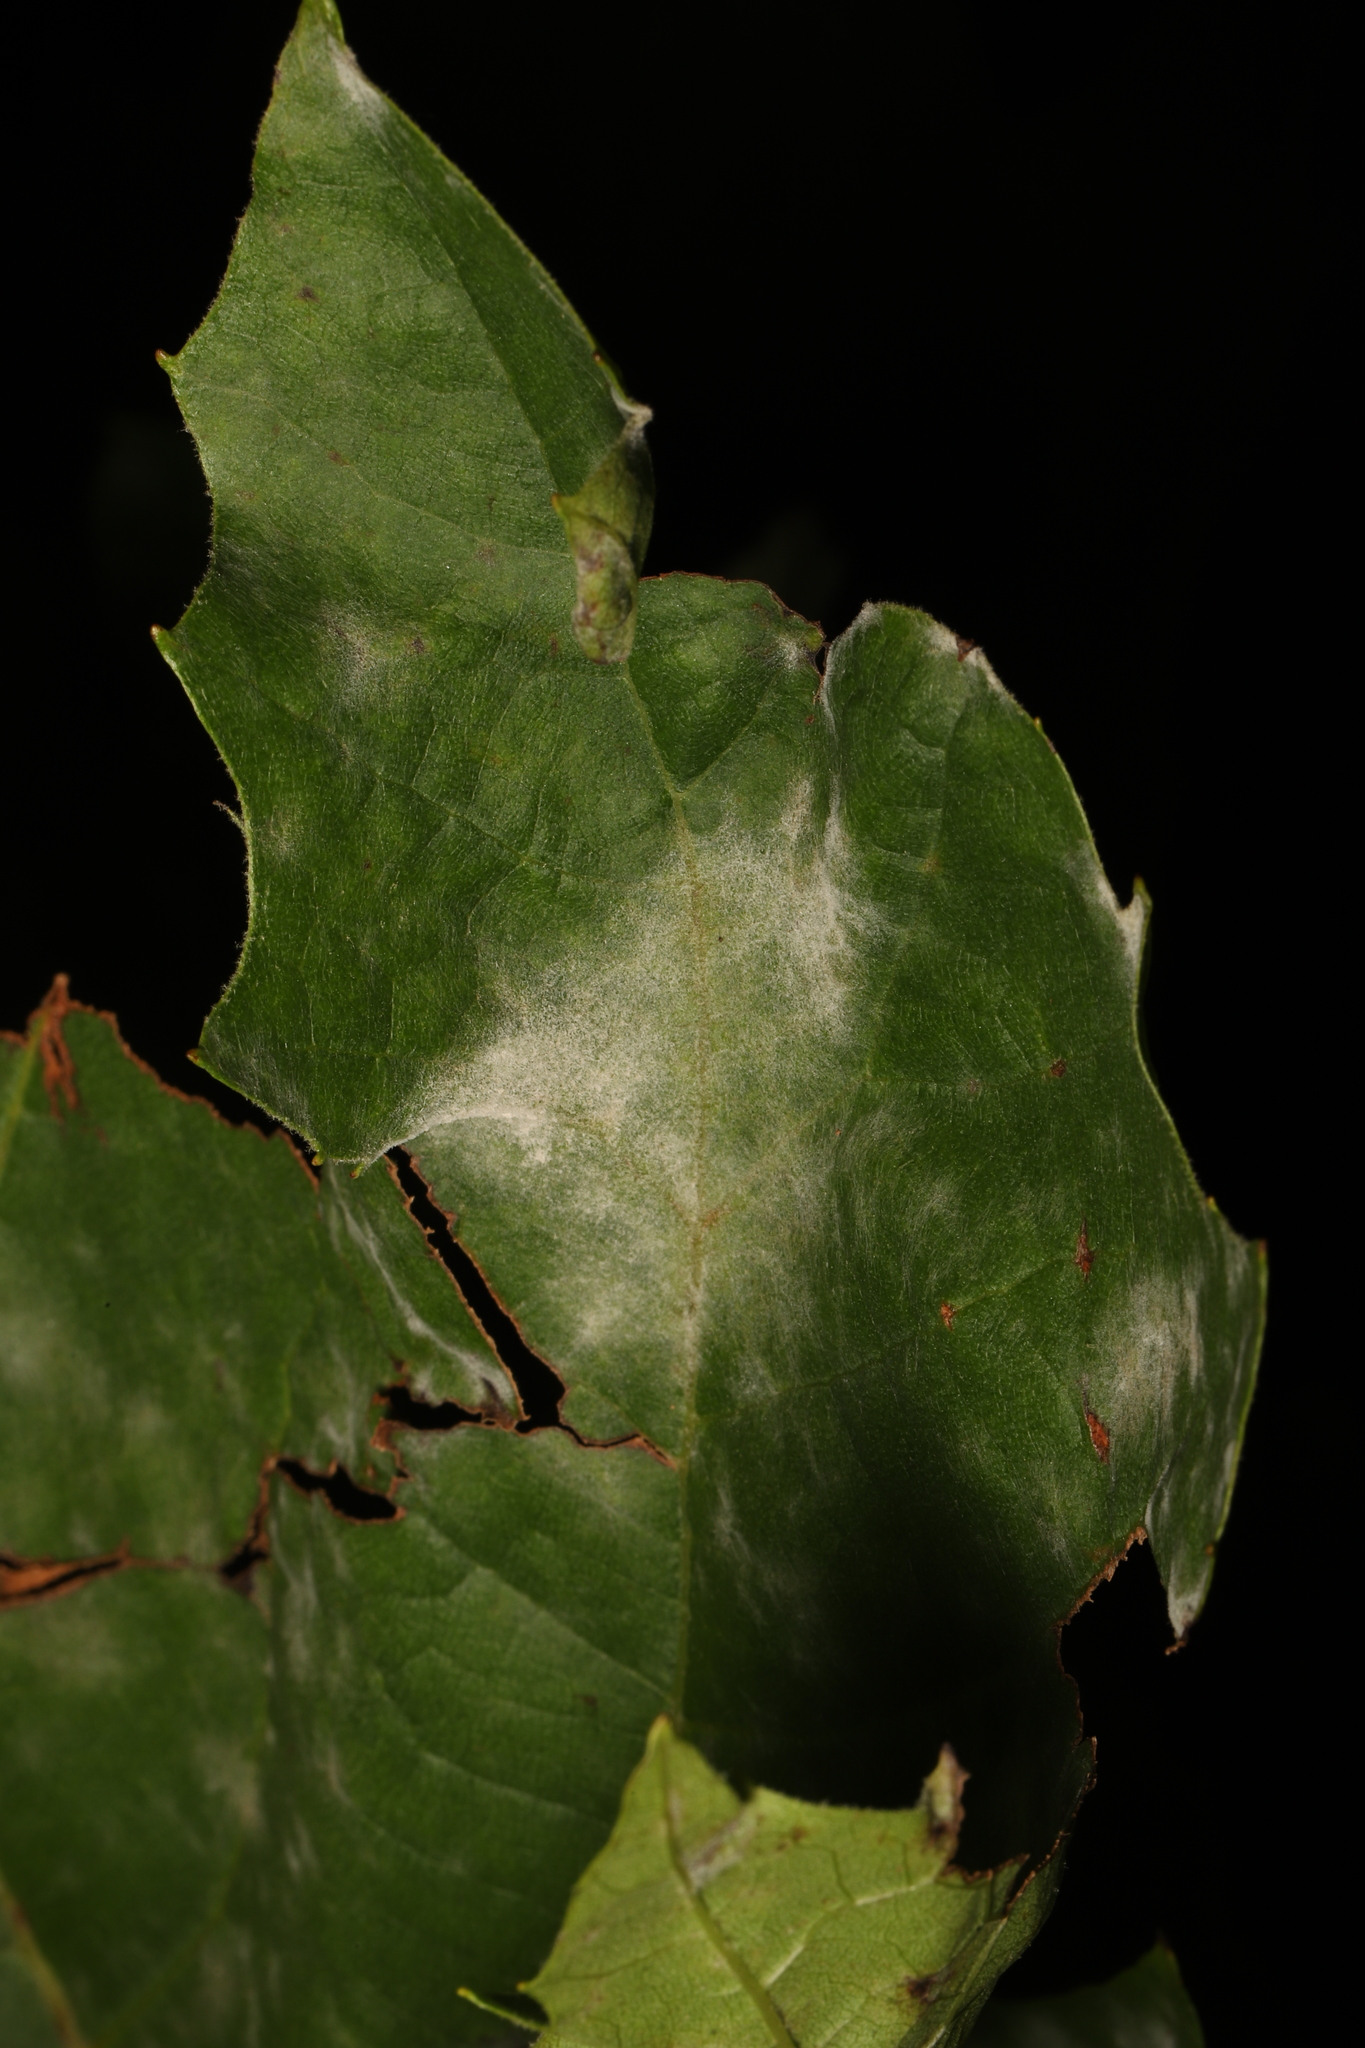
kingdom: Fungi
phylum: Ascomycota
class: Leotiomycetes
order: Helotiales
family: Erysiphaceae
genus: Erysiphe
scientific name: Erysiphe platani
